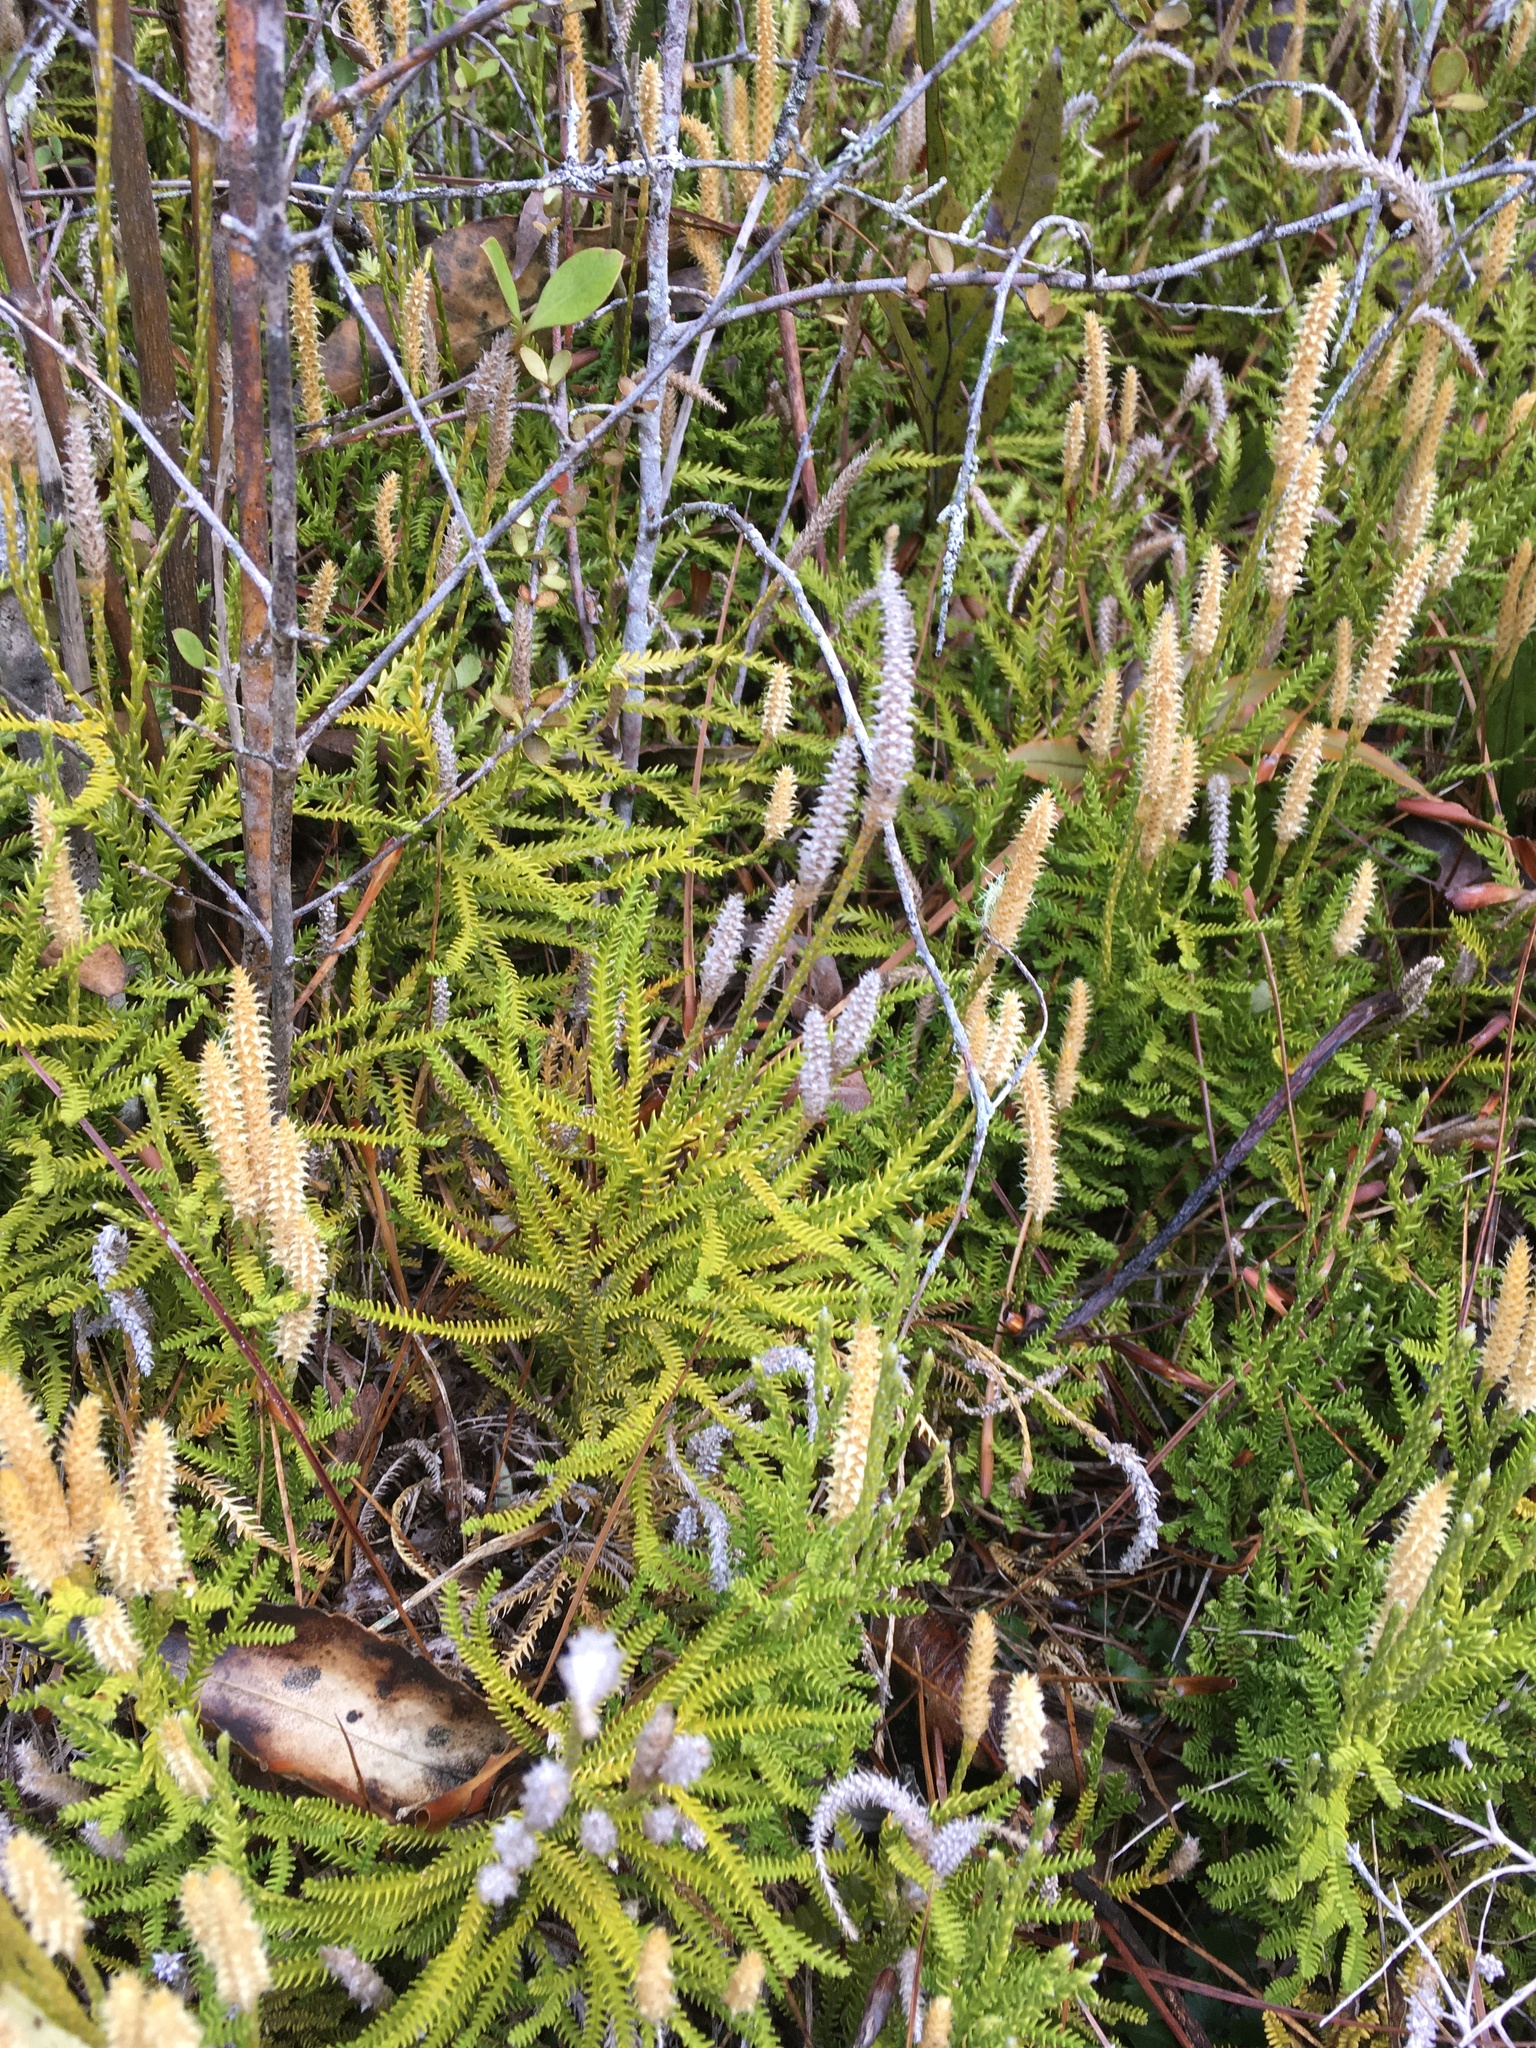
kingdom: Plantae
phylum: Tracheophyta
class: Lycopodiopsida
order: Lycopodiales
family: Lycopodiaceae
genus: Diphasium
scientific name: Diphasium scariosum
